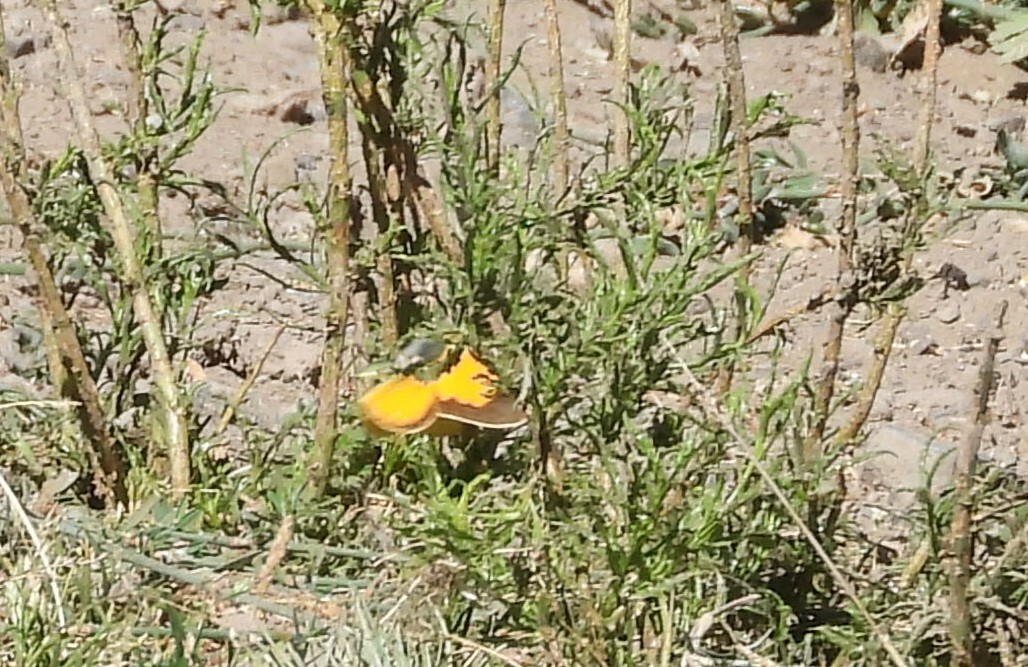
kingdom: Animalia
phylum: Arthropoda
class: Insecta
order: Lepidoptera
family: Pieridae
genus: Colias
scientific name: Colias vauthierii
